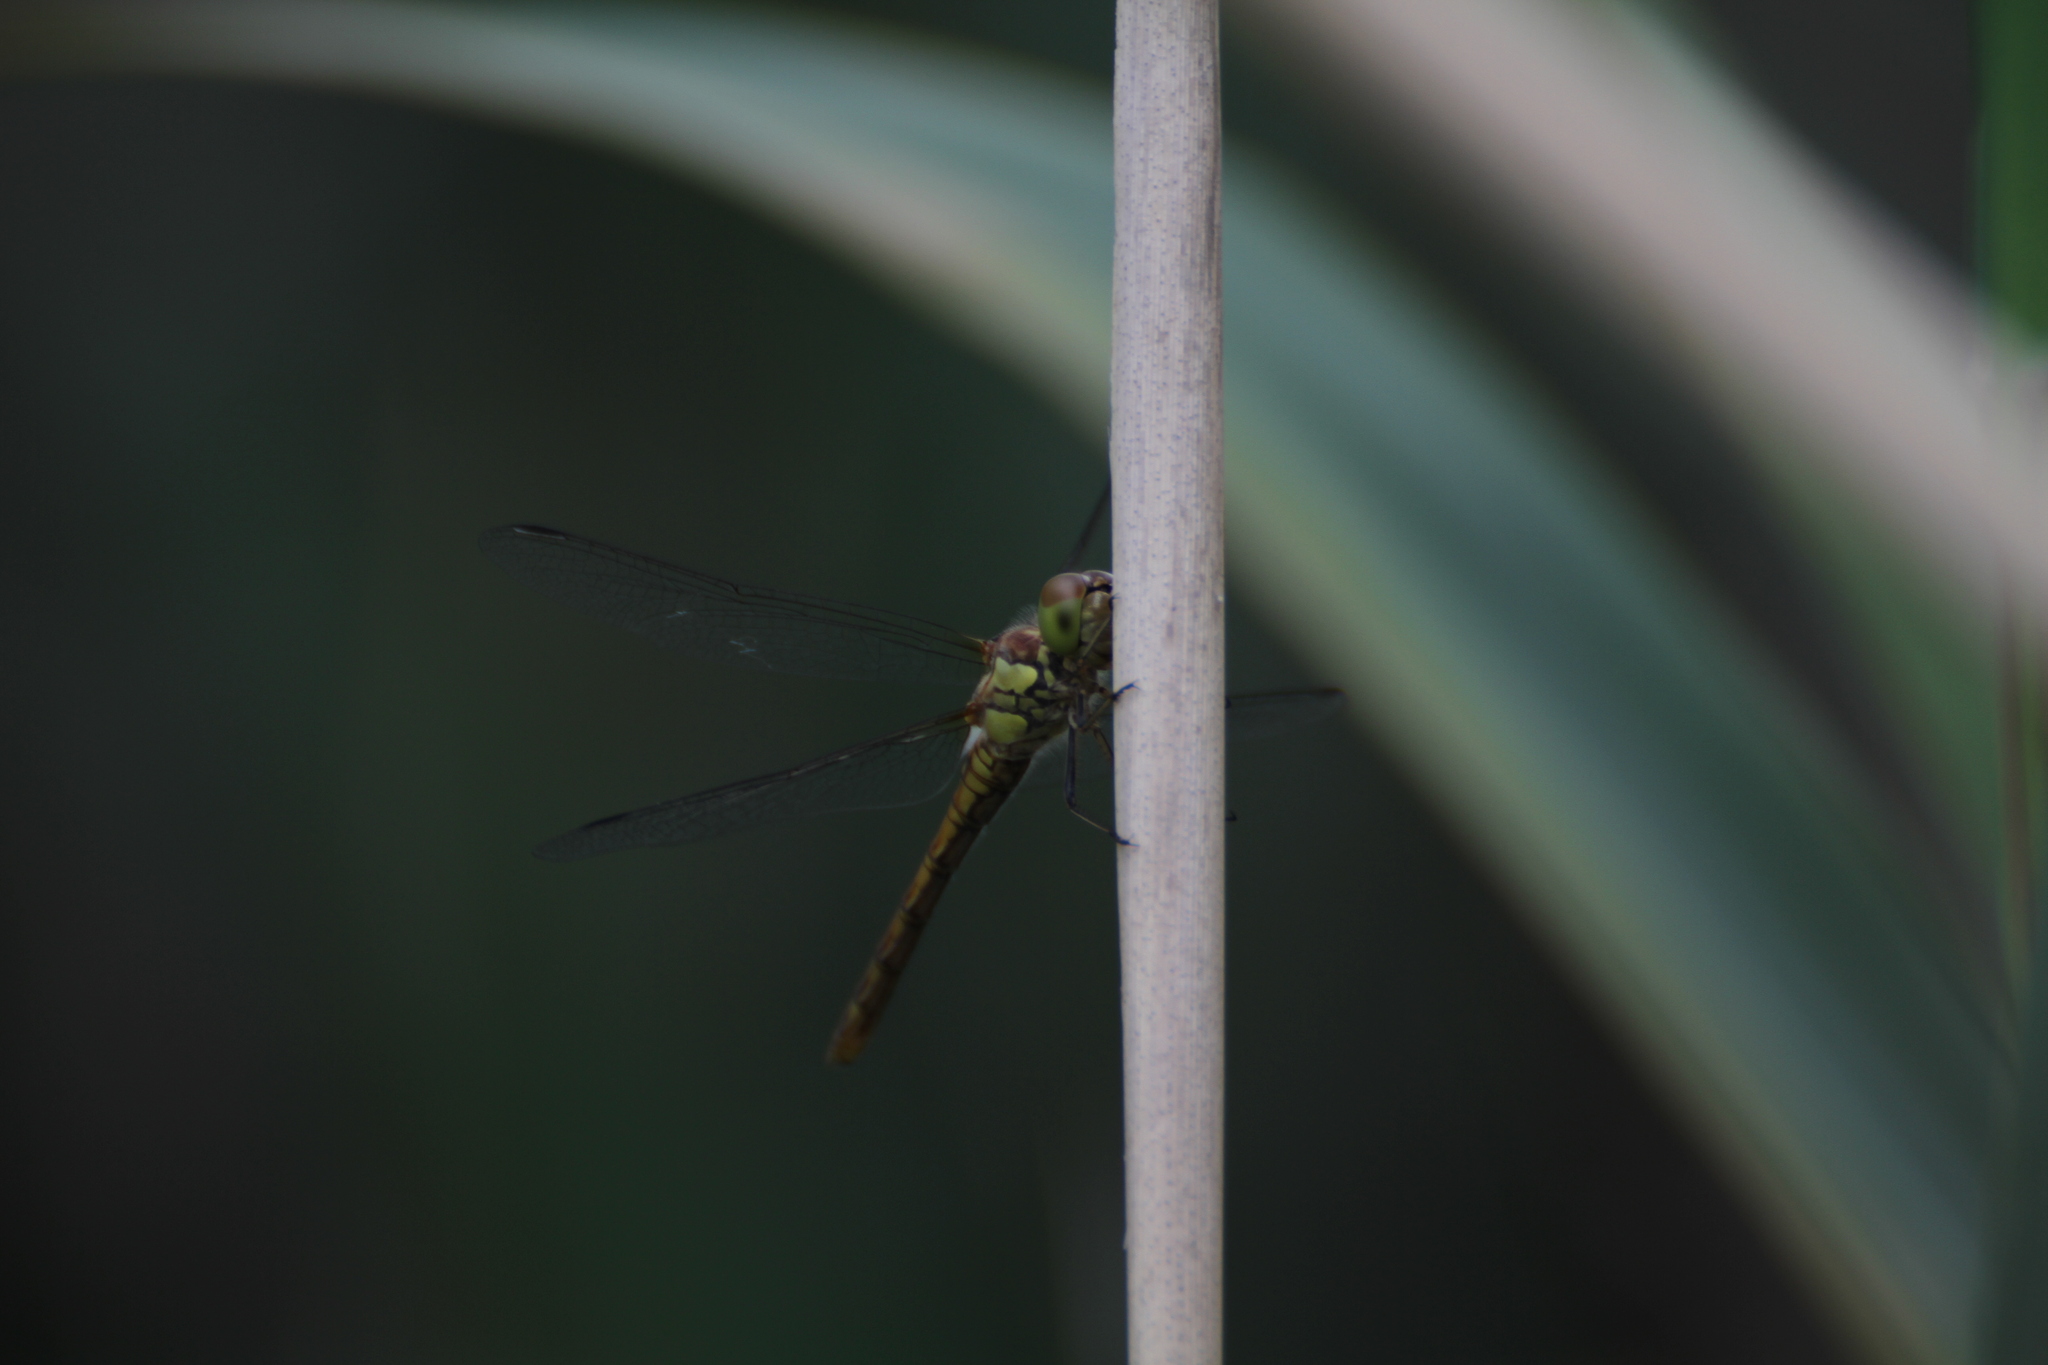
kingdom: Animalia
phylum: Arthropoda
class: Insecta
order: Odonata
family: Libellulidae
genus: Sympetrum
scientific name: Sympetrum striolatum
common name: Common darter
